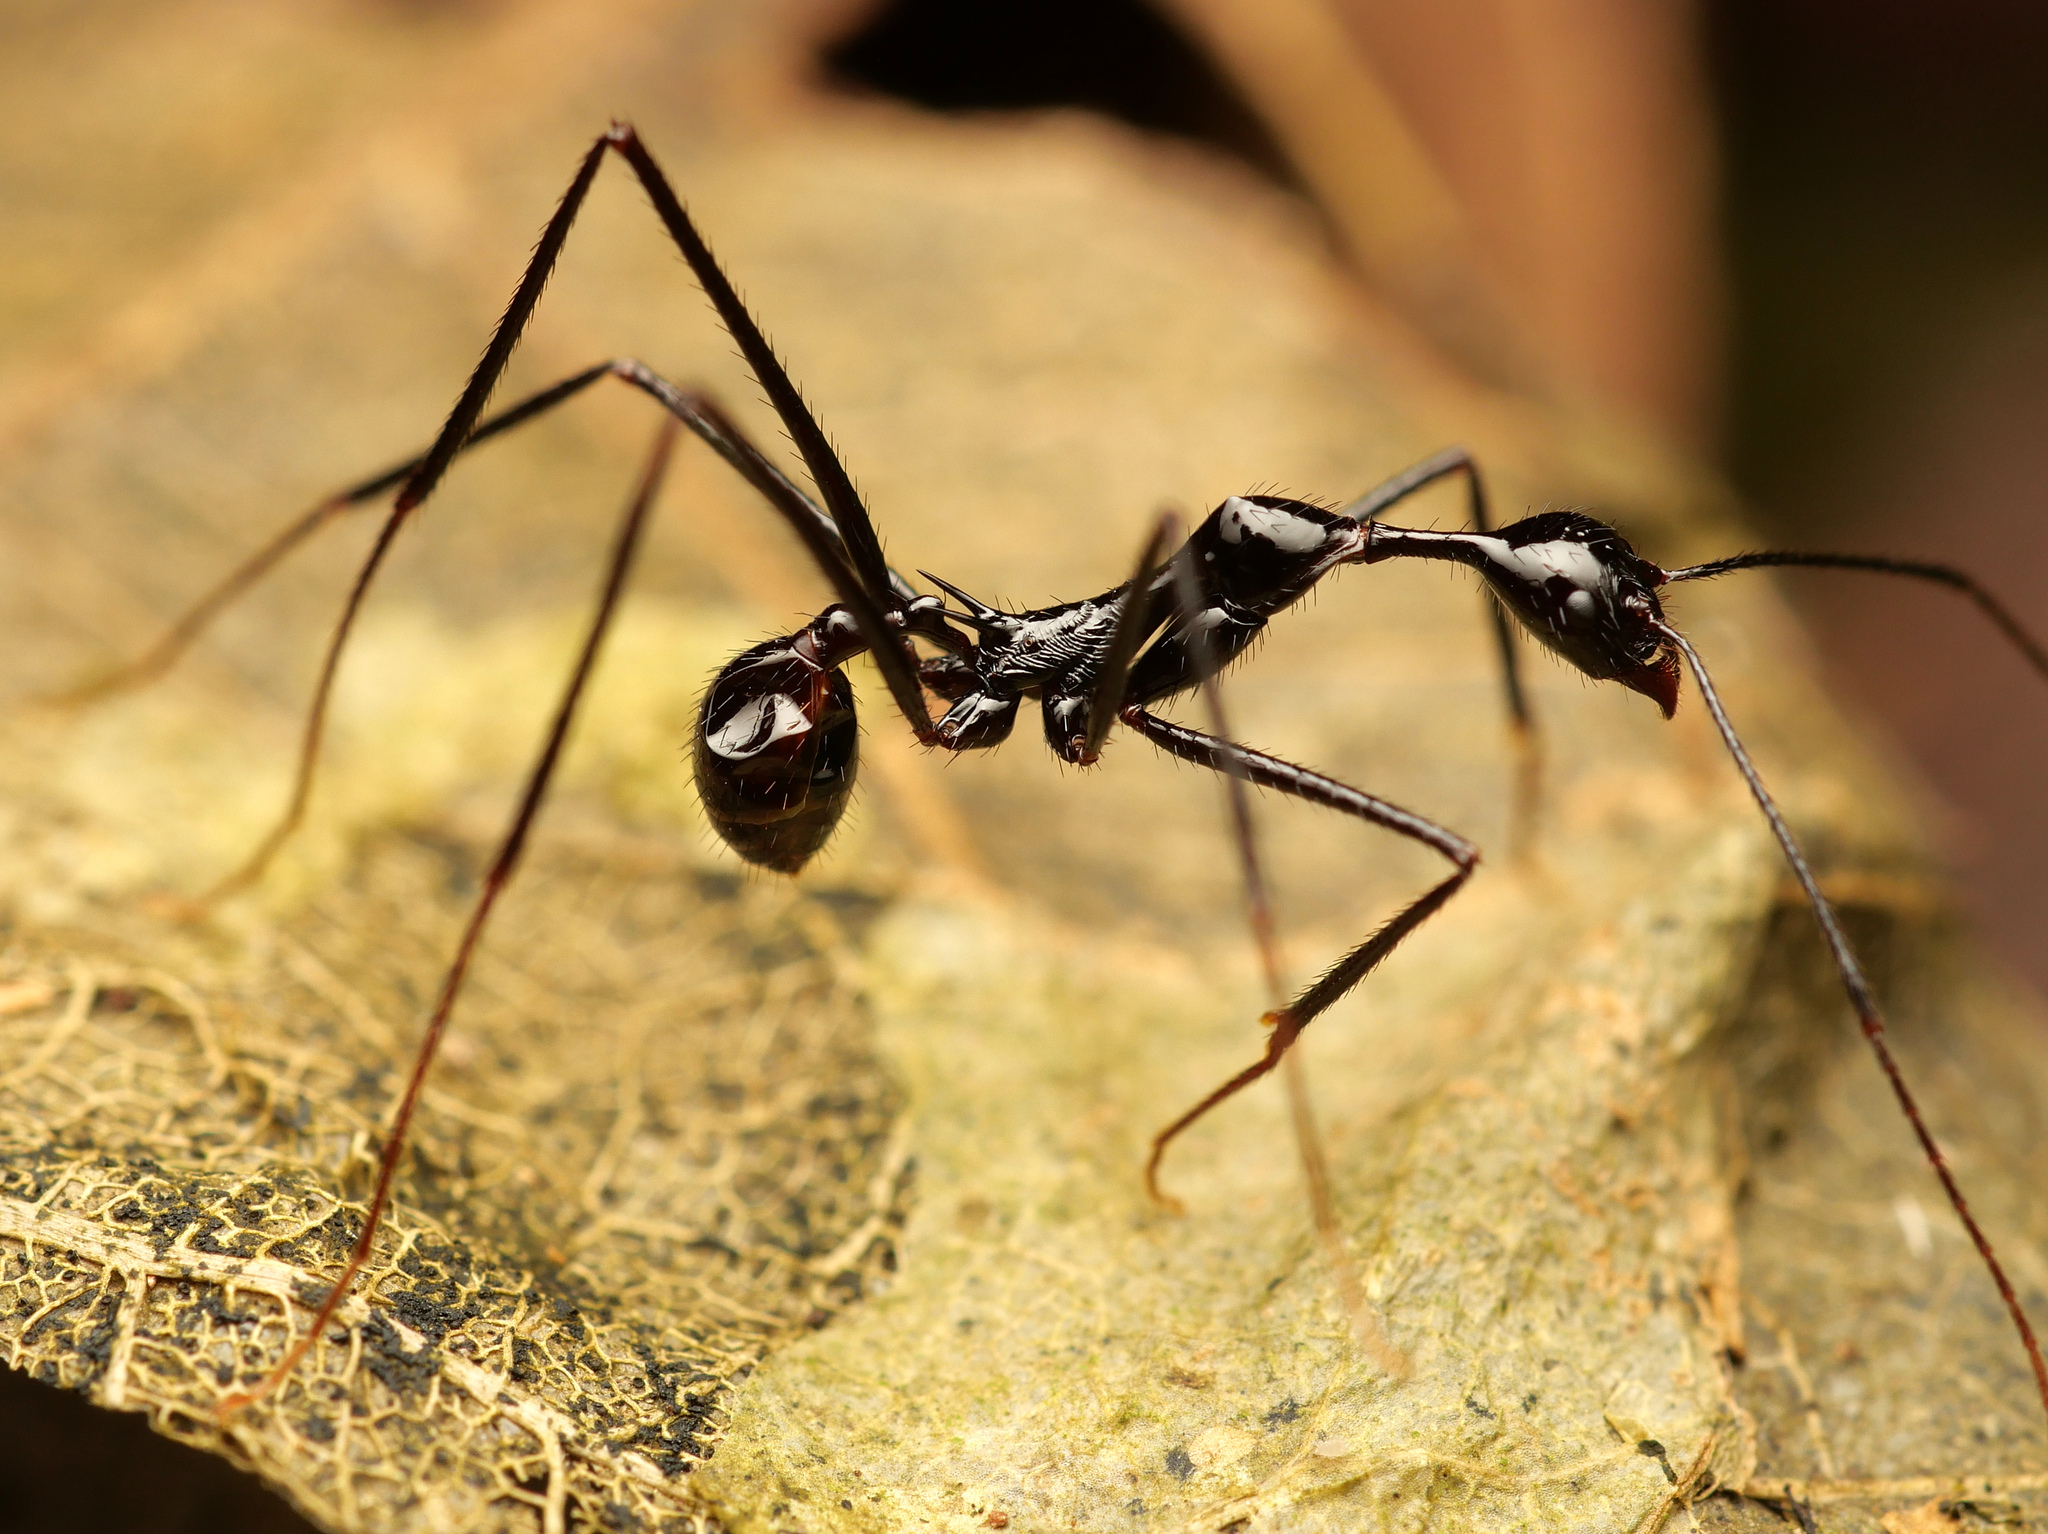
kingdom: Animalia
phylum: Arthropoda
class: Insecta
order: Hymenoptera
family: Formicidae
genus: Aphaenogaster
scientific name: Aphaenogaster dromedaria
